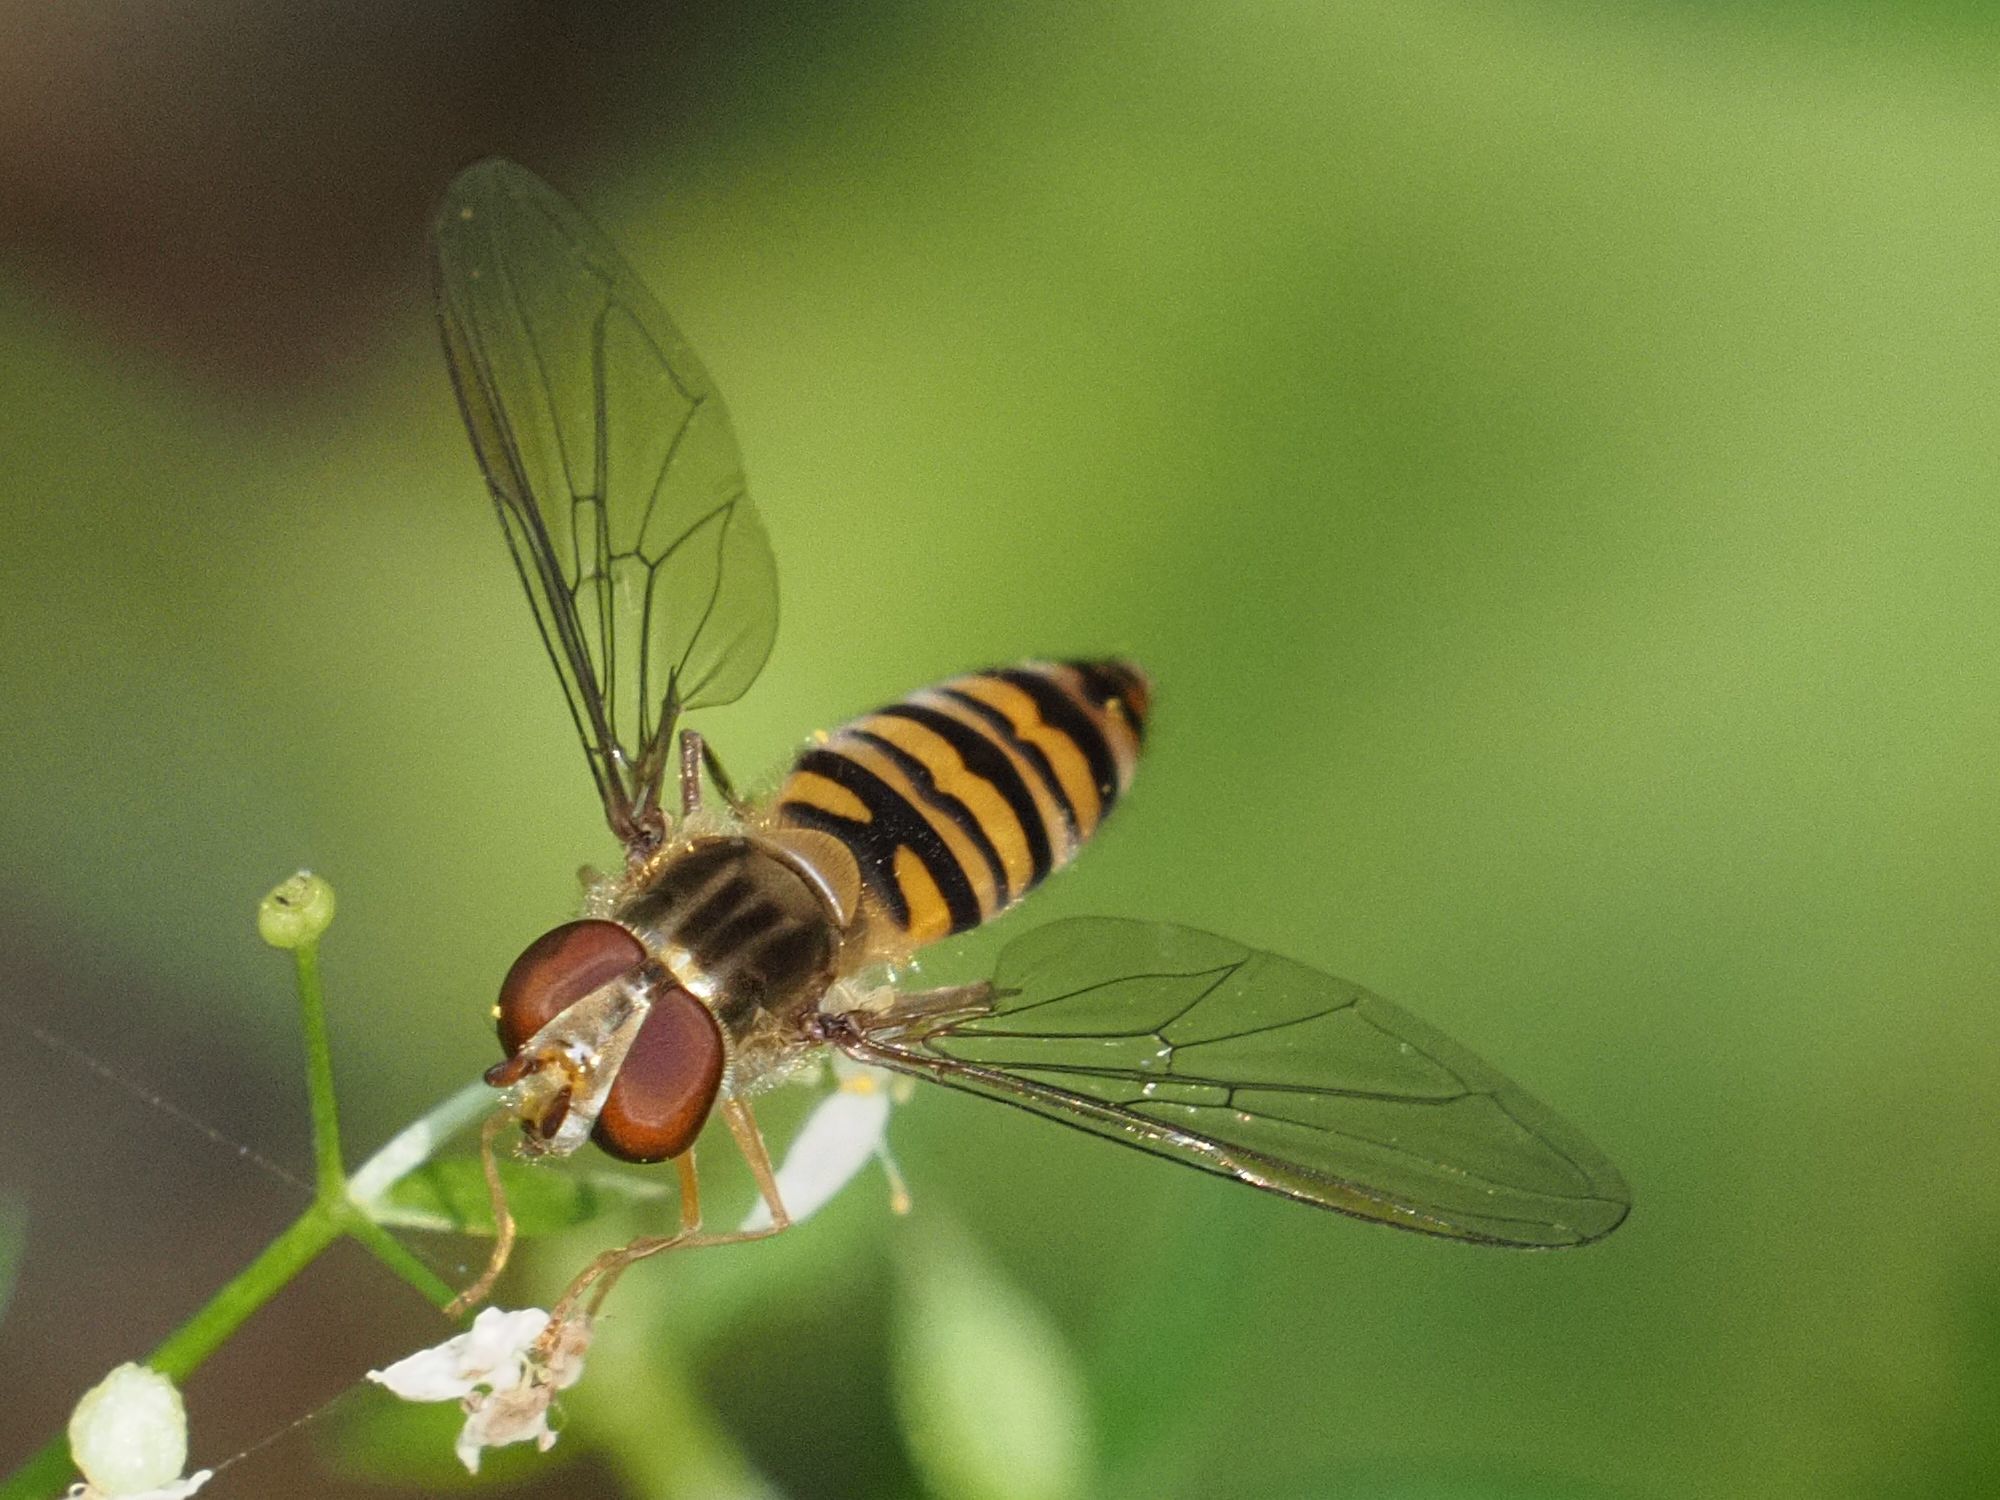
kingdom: Animalia
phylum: Arthropoda
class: Insecta
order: Diptera
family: Syrphidae
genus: Episyrphus
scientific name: Episyrphus balteatus
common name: Marmalade hoverfly
